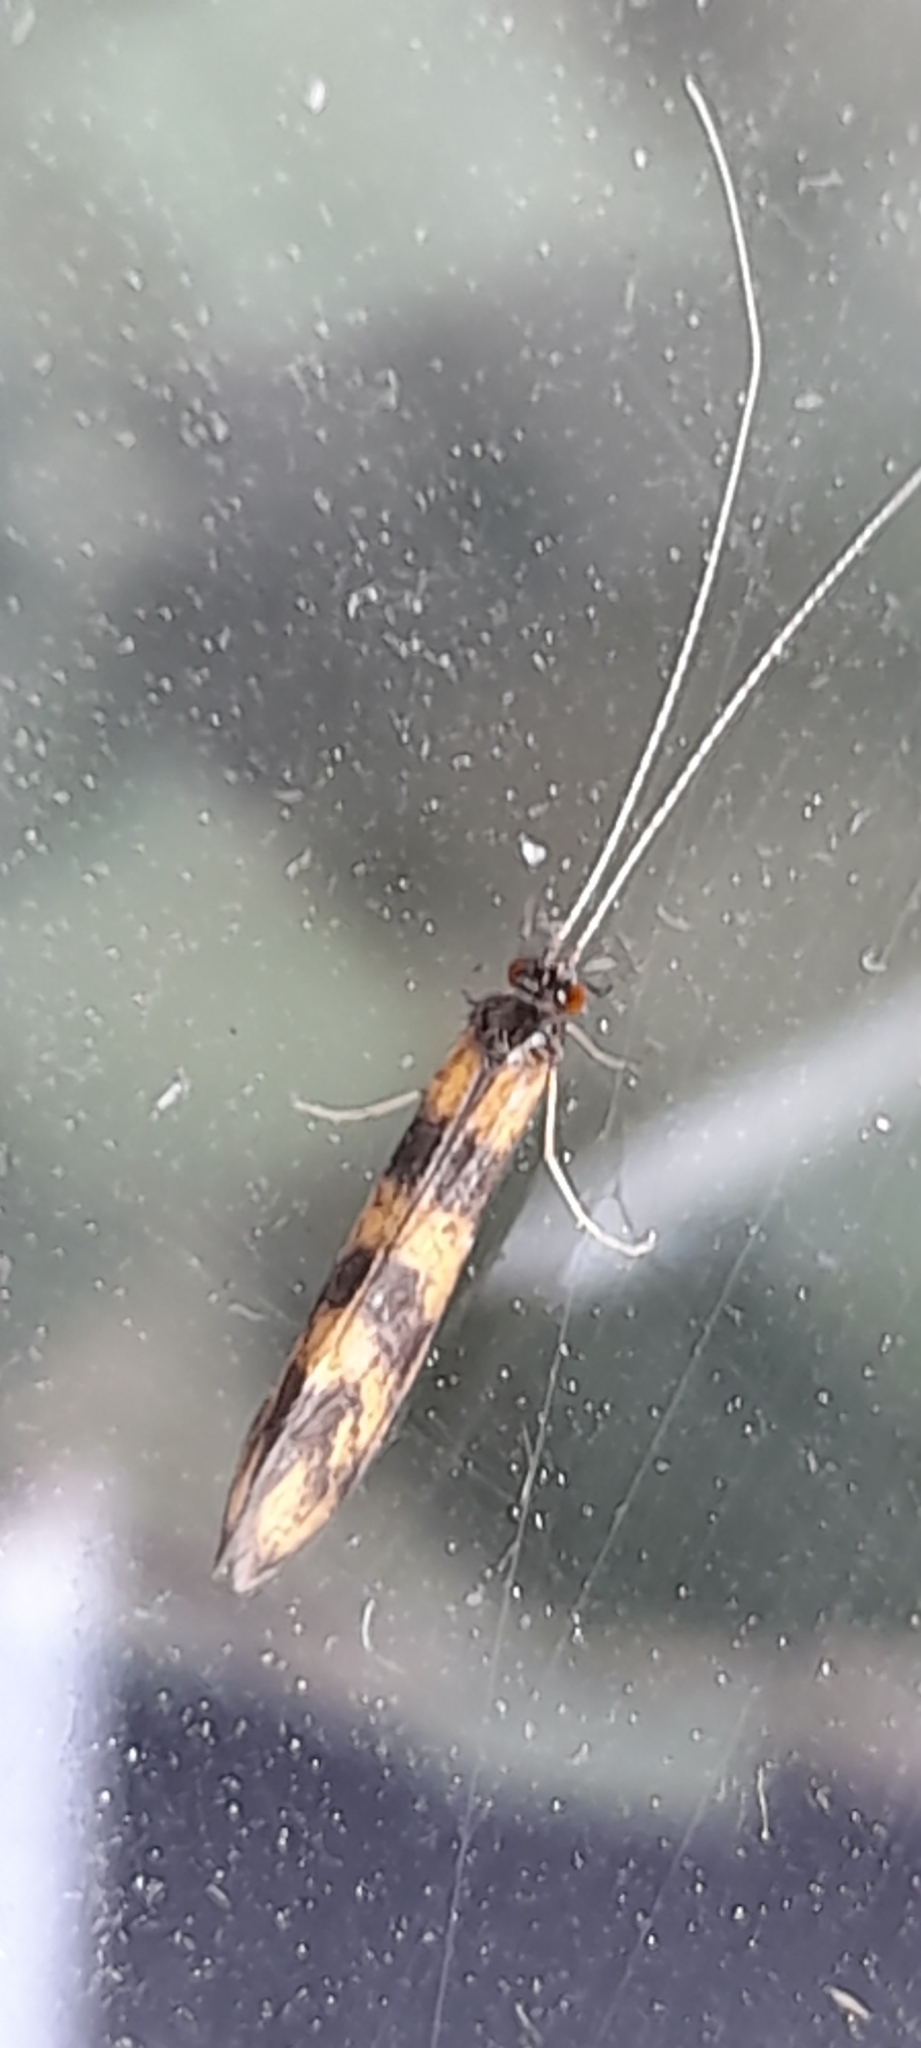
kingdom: Animalia
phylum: Arthropoda
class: Insecta
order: Trichoptera
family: Leptoceridae
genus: Mystacides
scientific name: Mystacides longicornis
